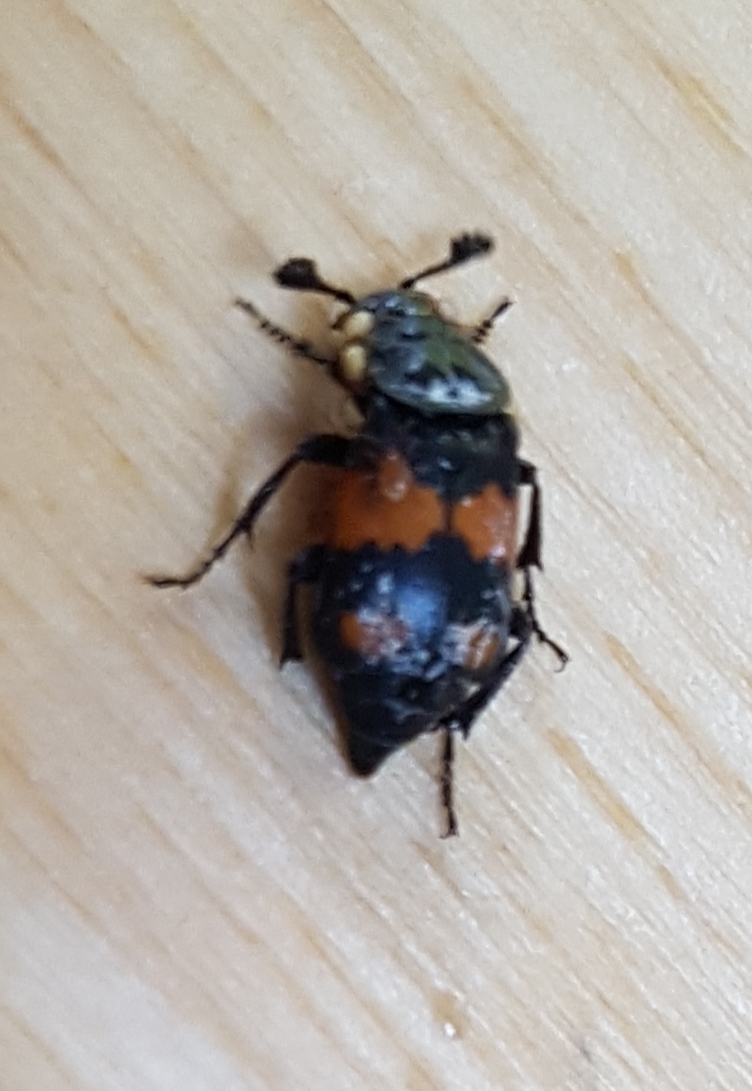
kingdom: Animalia
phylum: Arthropoda
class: Insecta
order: Coleoptera
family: Staphylinidae
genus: Nicrophorus
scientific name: Nicrophorus vespilloides
